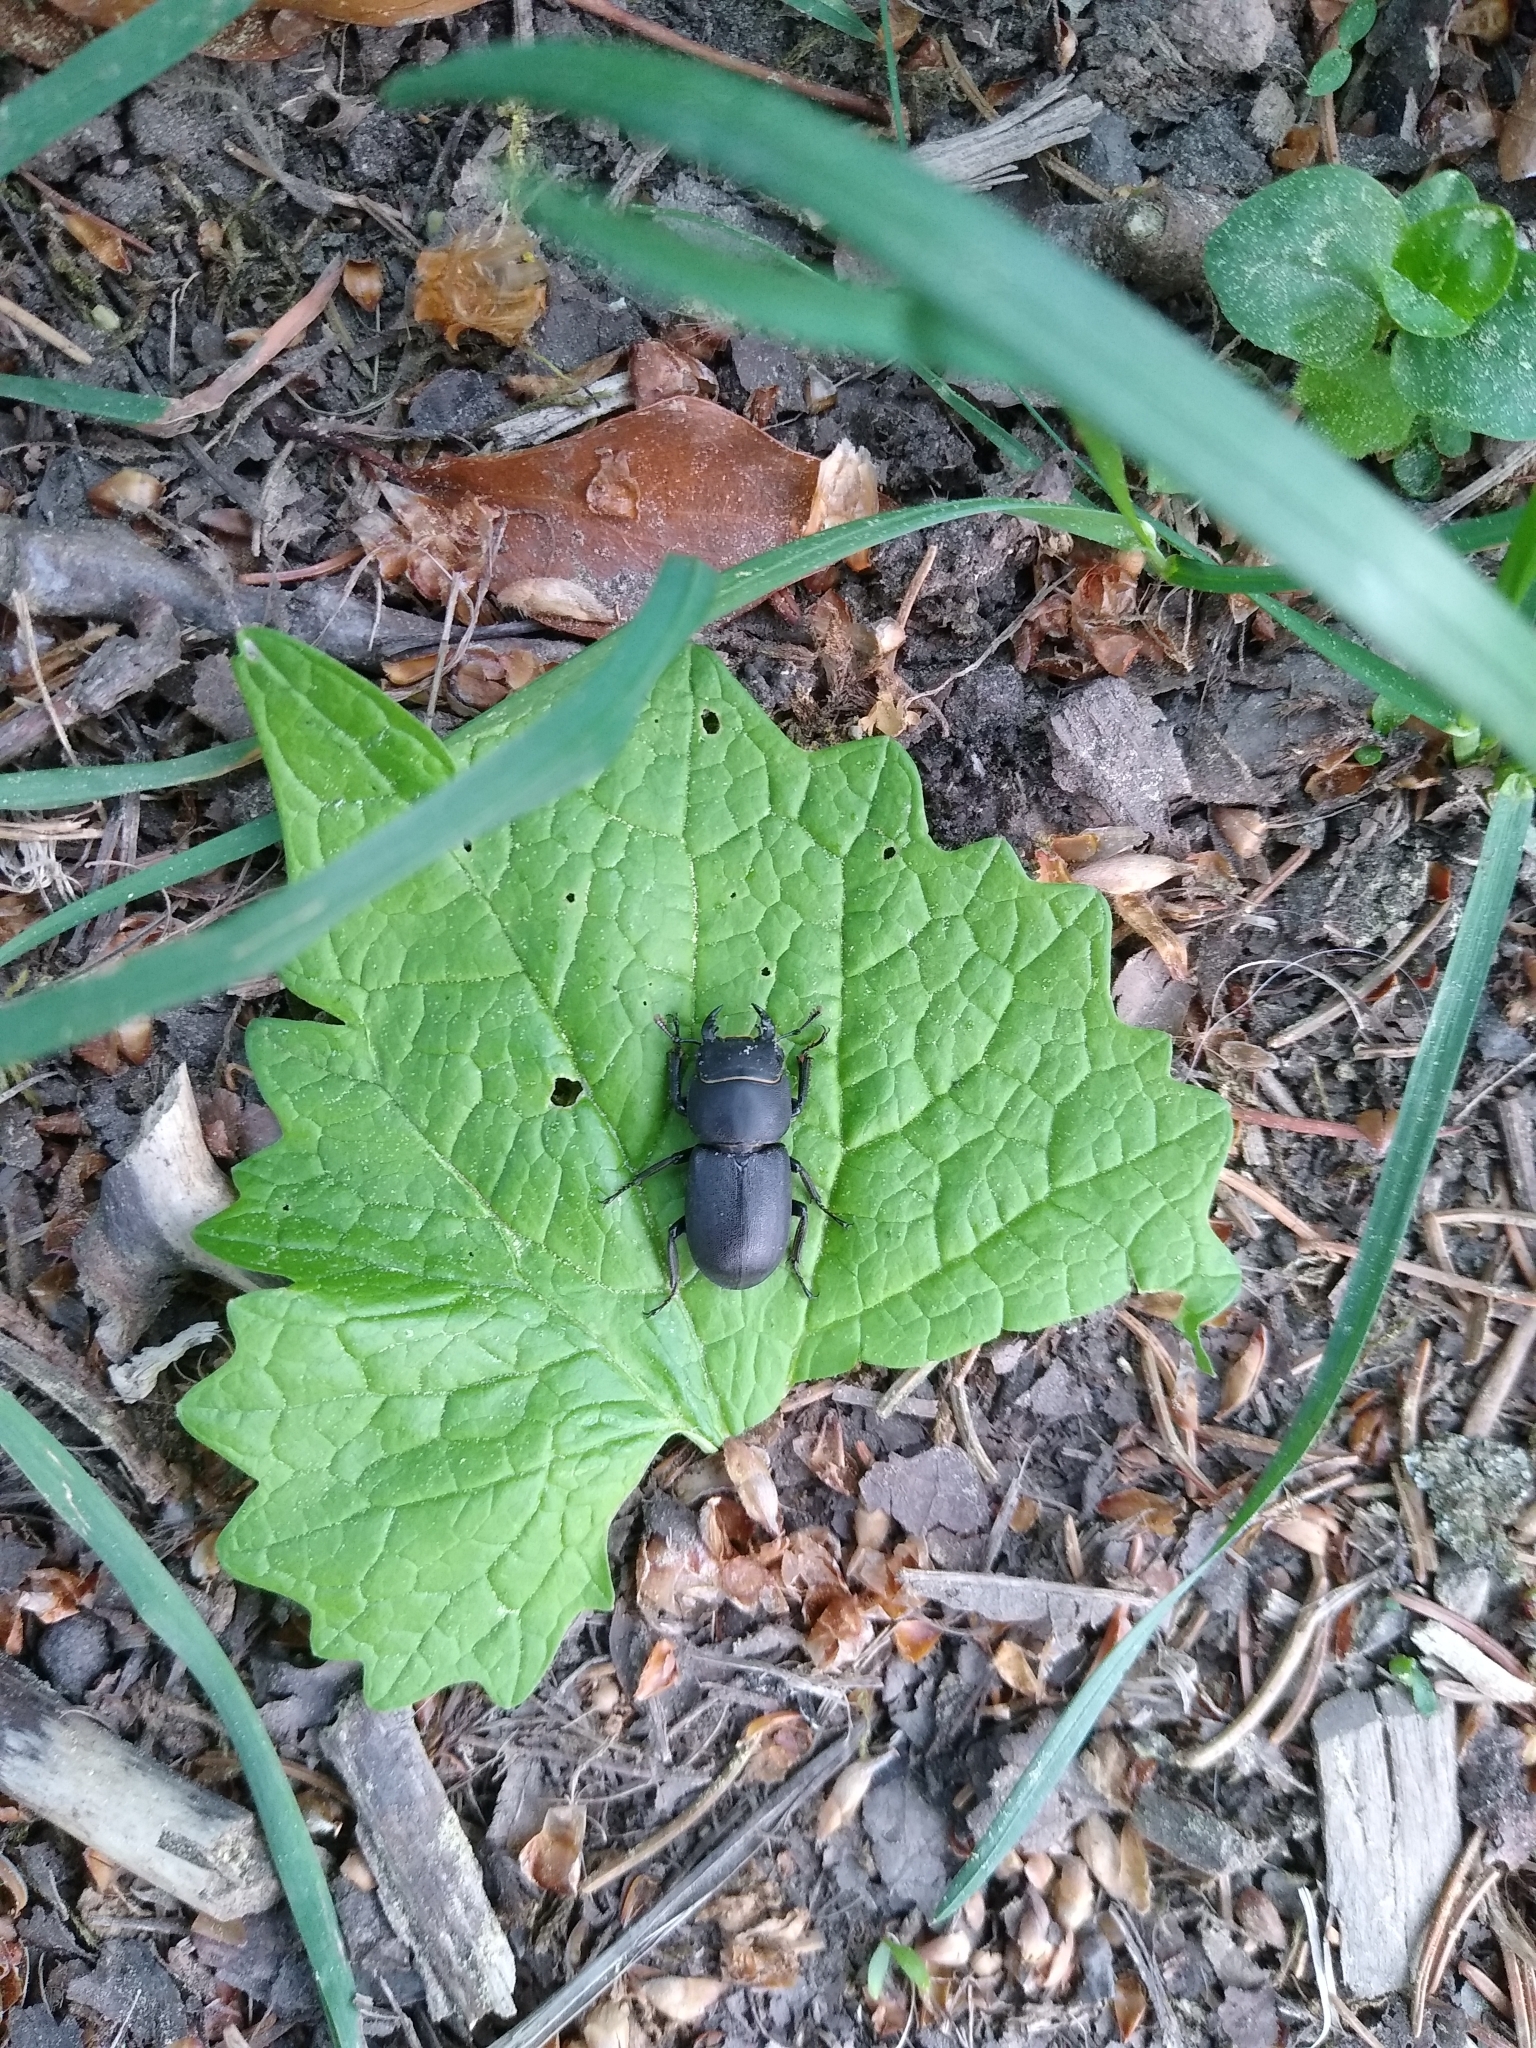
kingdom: Animalia
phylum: Arthropoda
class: Insecta
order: Coleoptera
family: Lucanidae
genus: Dorcus
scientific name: Dorcus parallelipipedus
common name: Lesser stag beetle
